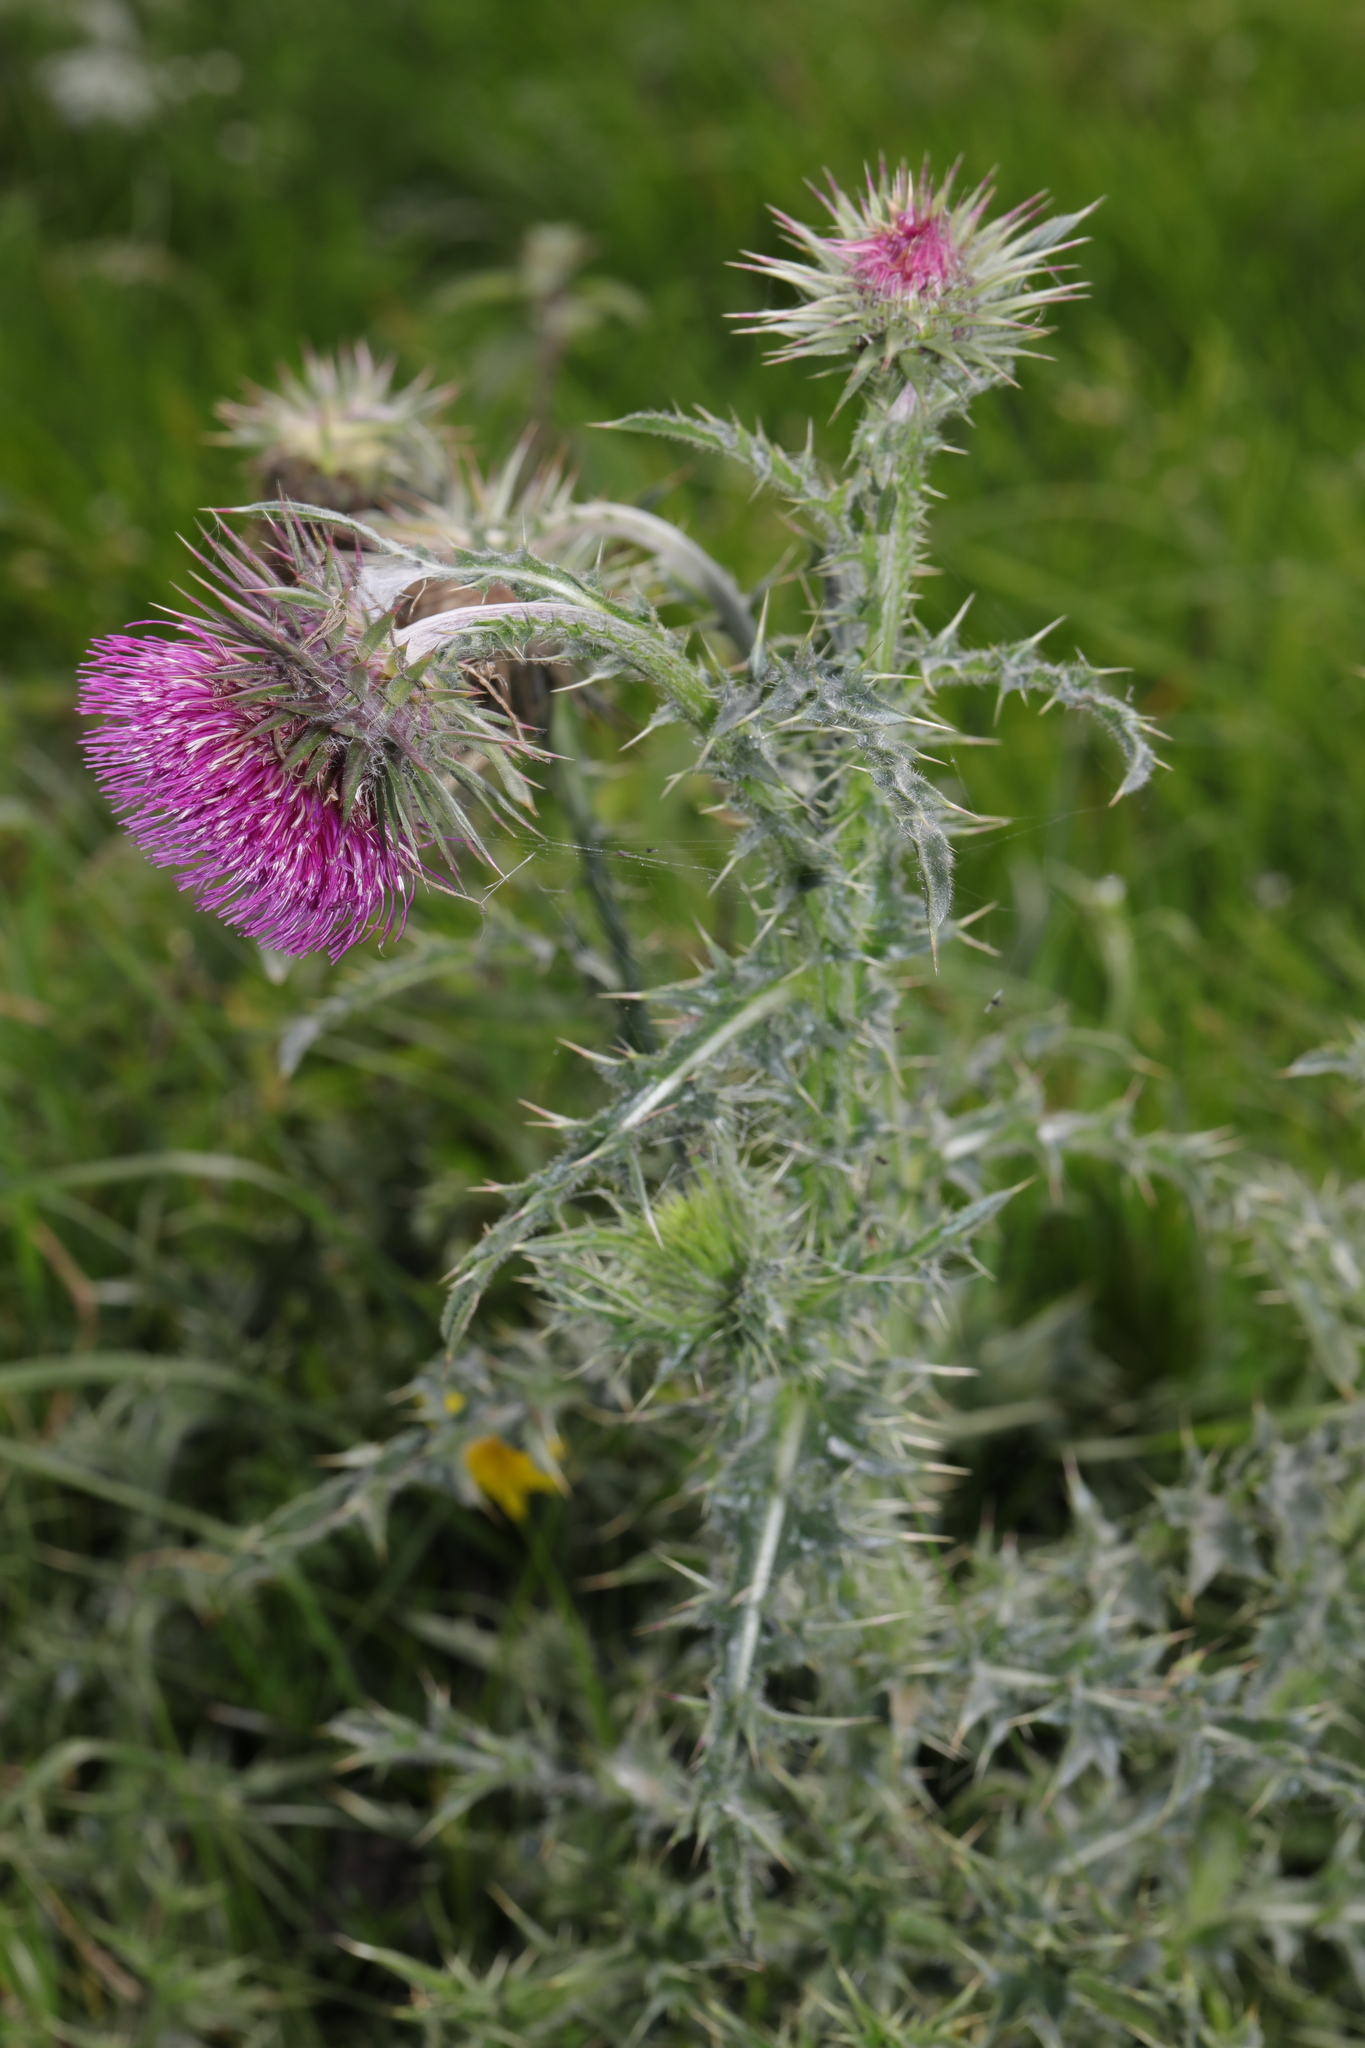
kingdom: Plantae
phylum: Tracheophyta
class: Magnoliopsida
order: Asterales
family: Asteraceae
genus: Carduus
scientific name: Carduus nutans
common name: Musk thistle
